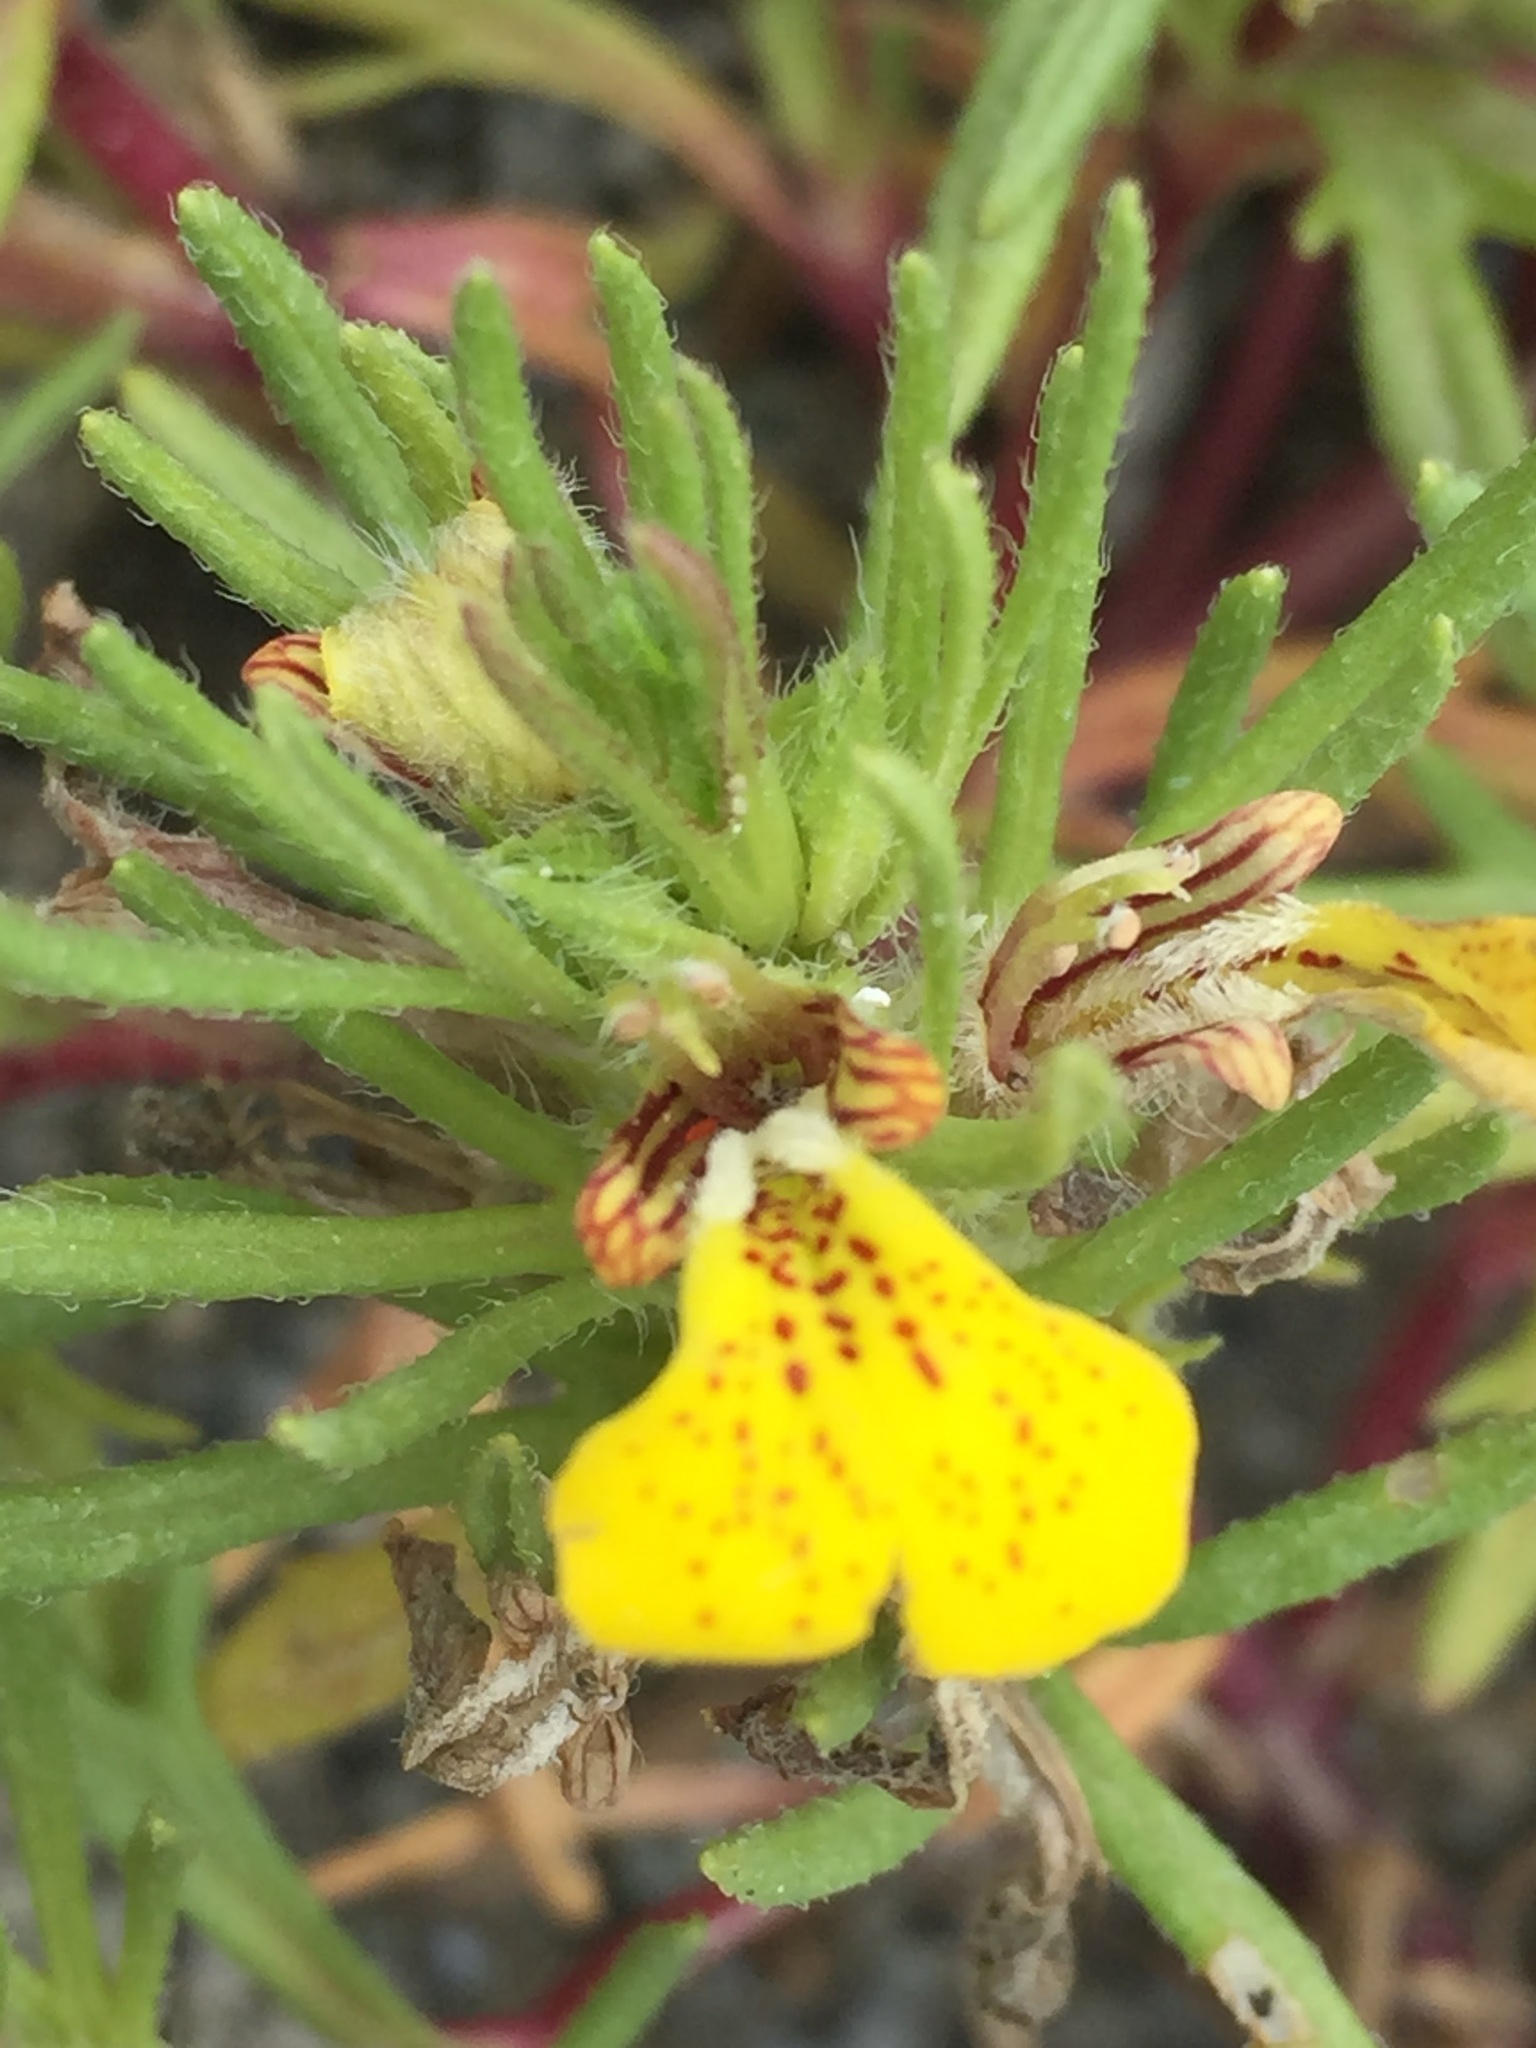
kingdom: Plantae
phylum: Tracheophyta
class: Magnoliopsida
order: Lamiales
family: Lamiaceae
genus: Ajuga
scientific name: Ajuga chamaepitys
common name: Ground-pine
